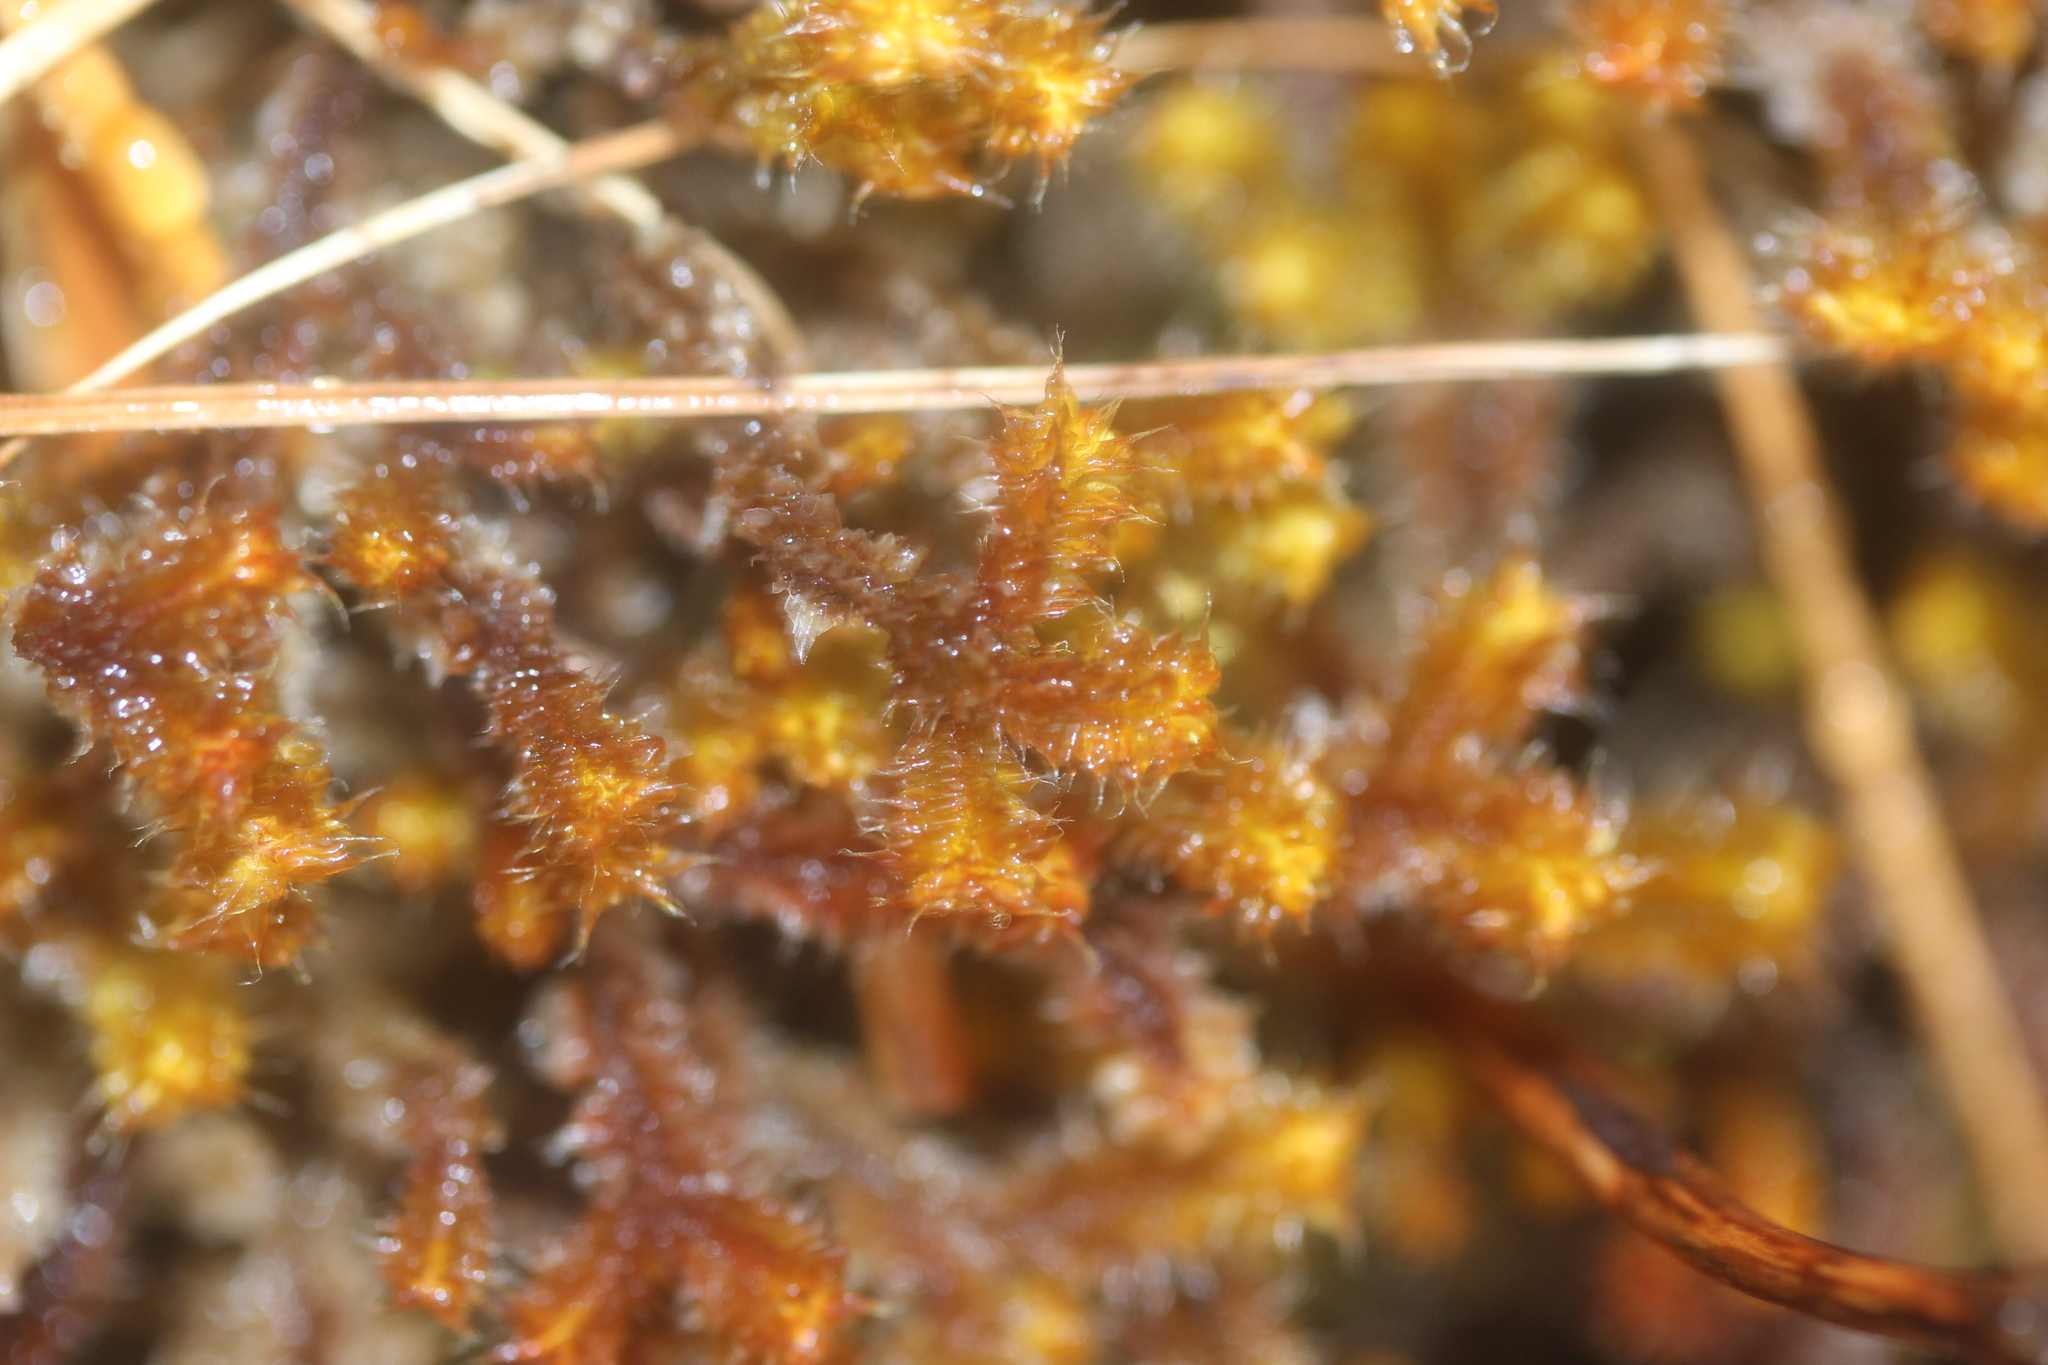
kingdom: Plantae
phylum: Marchantiophyta
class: Jungermanniopsida
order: Jungermanniales
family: Anastrophyllaceae
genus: Chandonanthus
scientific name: Chandonanthus squarrosus
